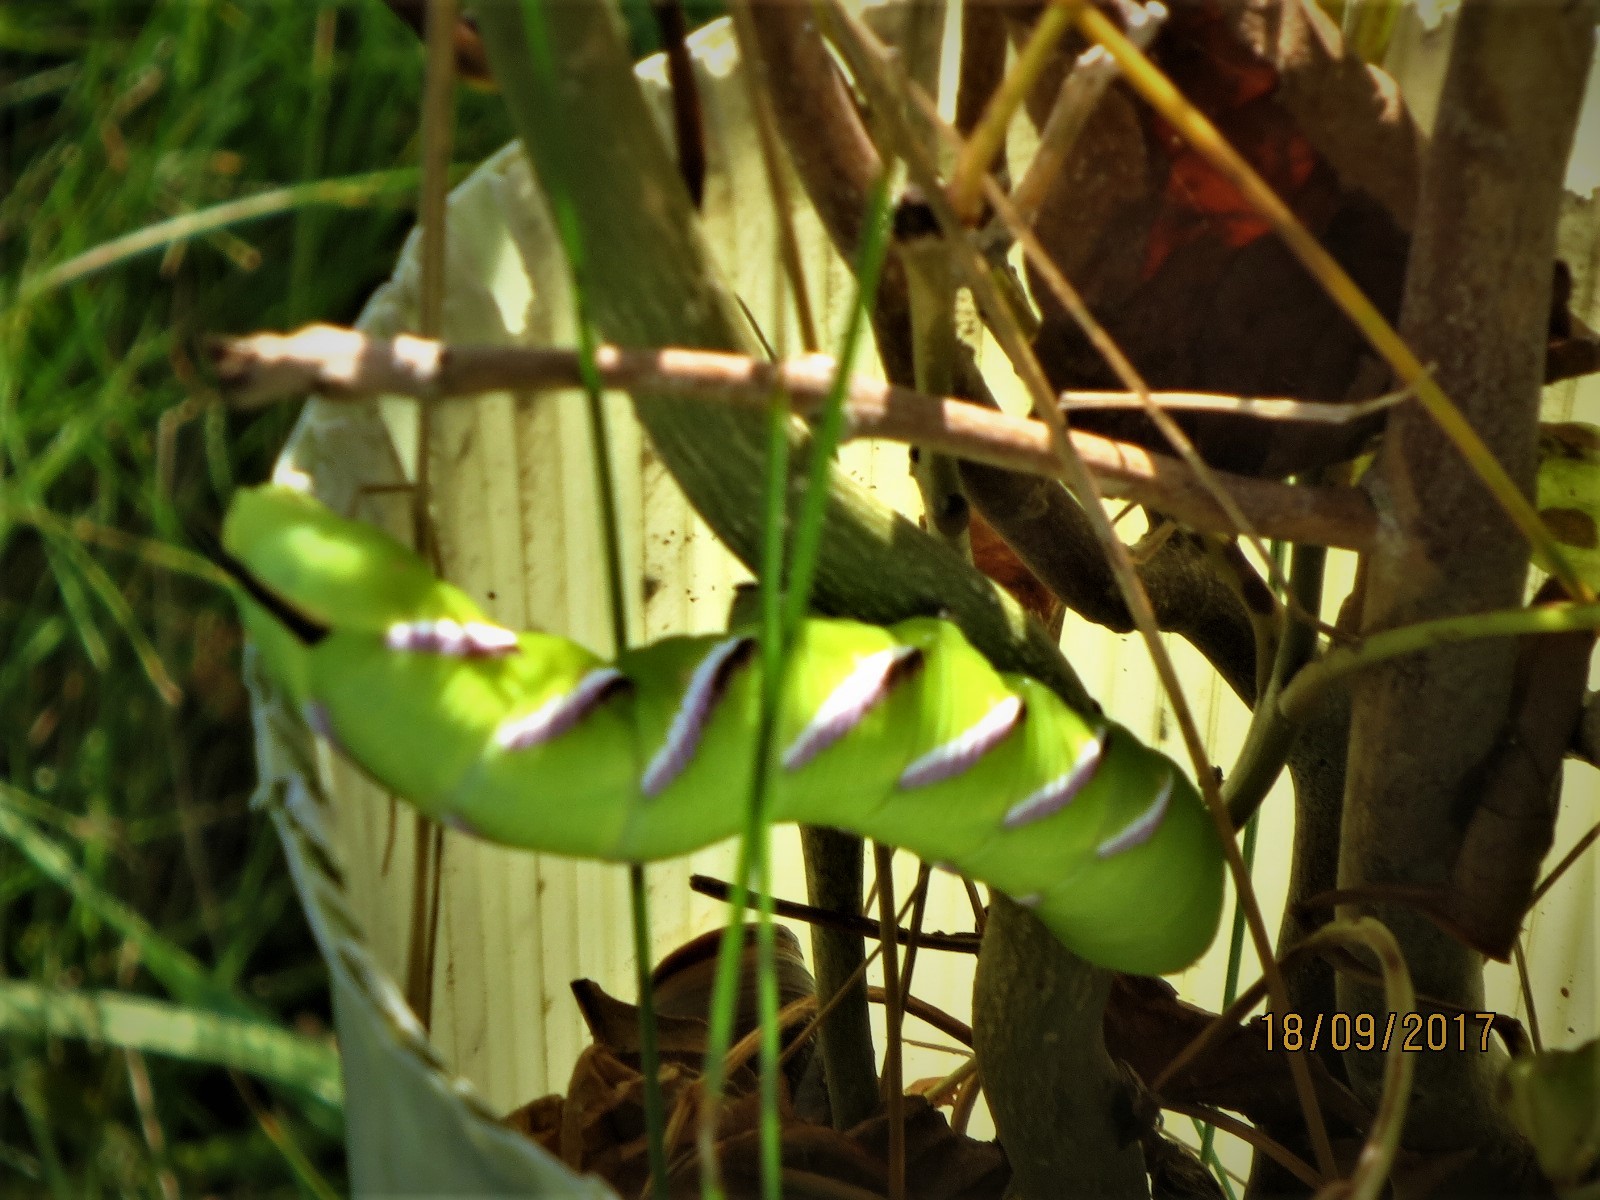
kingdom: Animalia
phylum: Arthropoda
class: Insecta
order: Lepidoptera
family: Sphingidae
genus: Sphinx
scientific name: Sphinx ligustri
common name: Privet hawk-moth
